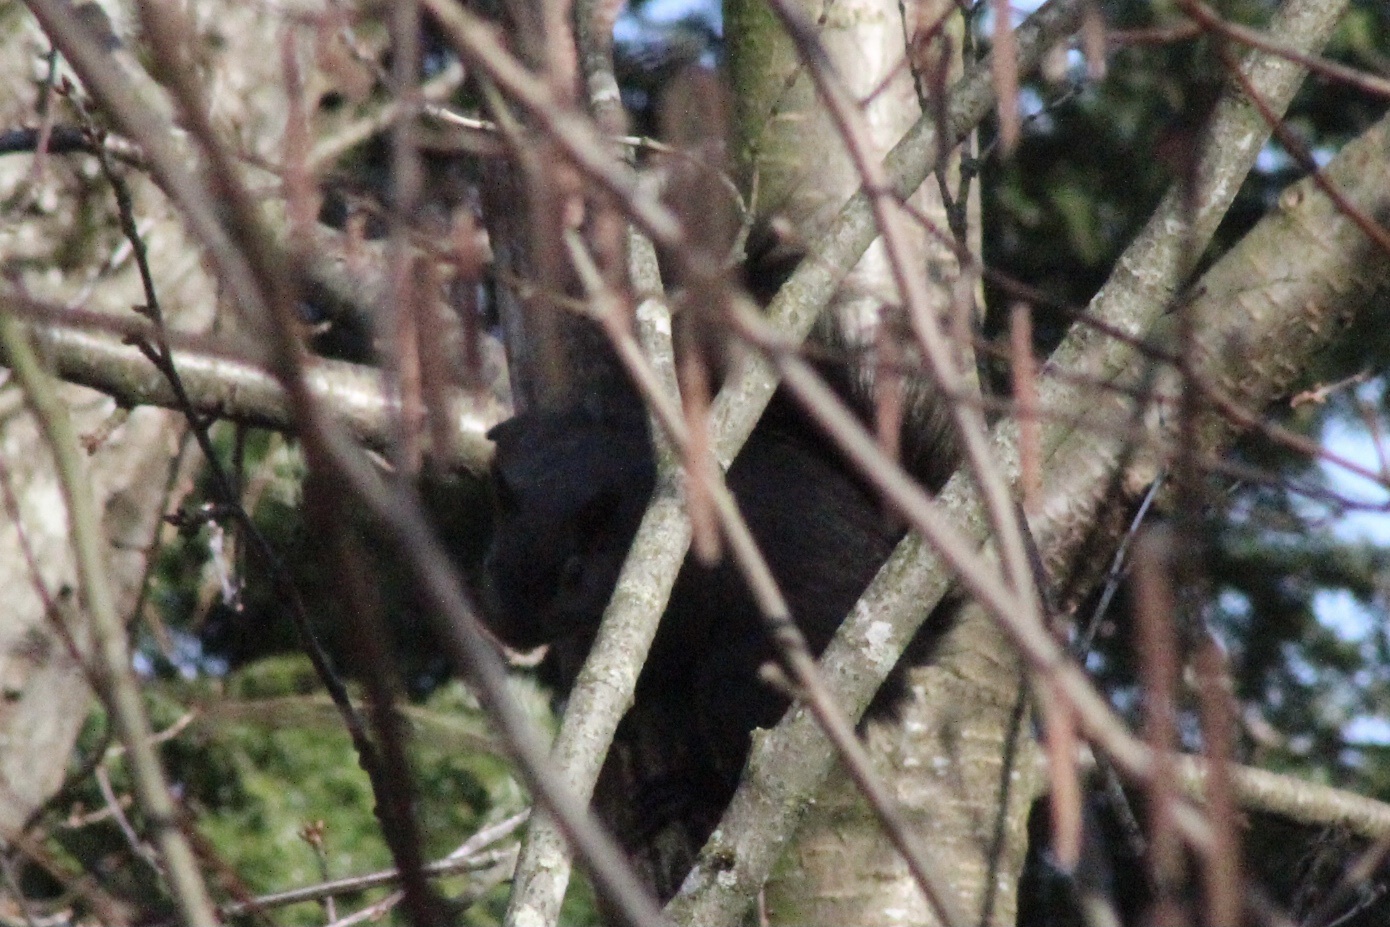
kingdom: Animalia
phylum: Chordata
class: Mammalia
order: Rodentia
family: Sciuridae
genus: Sciurus
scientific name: Sciurus carolinensis
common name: Eastern gray squirrel
